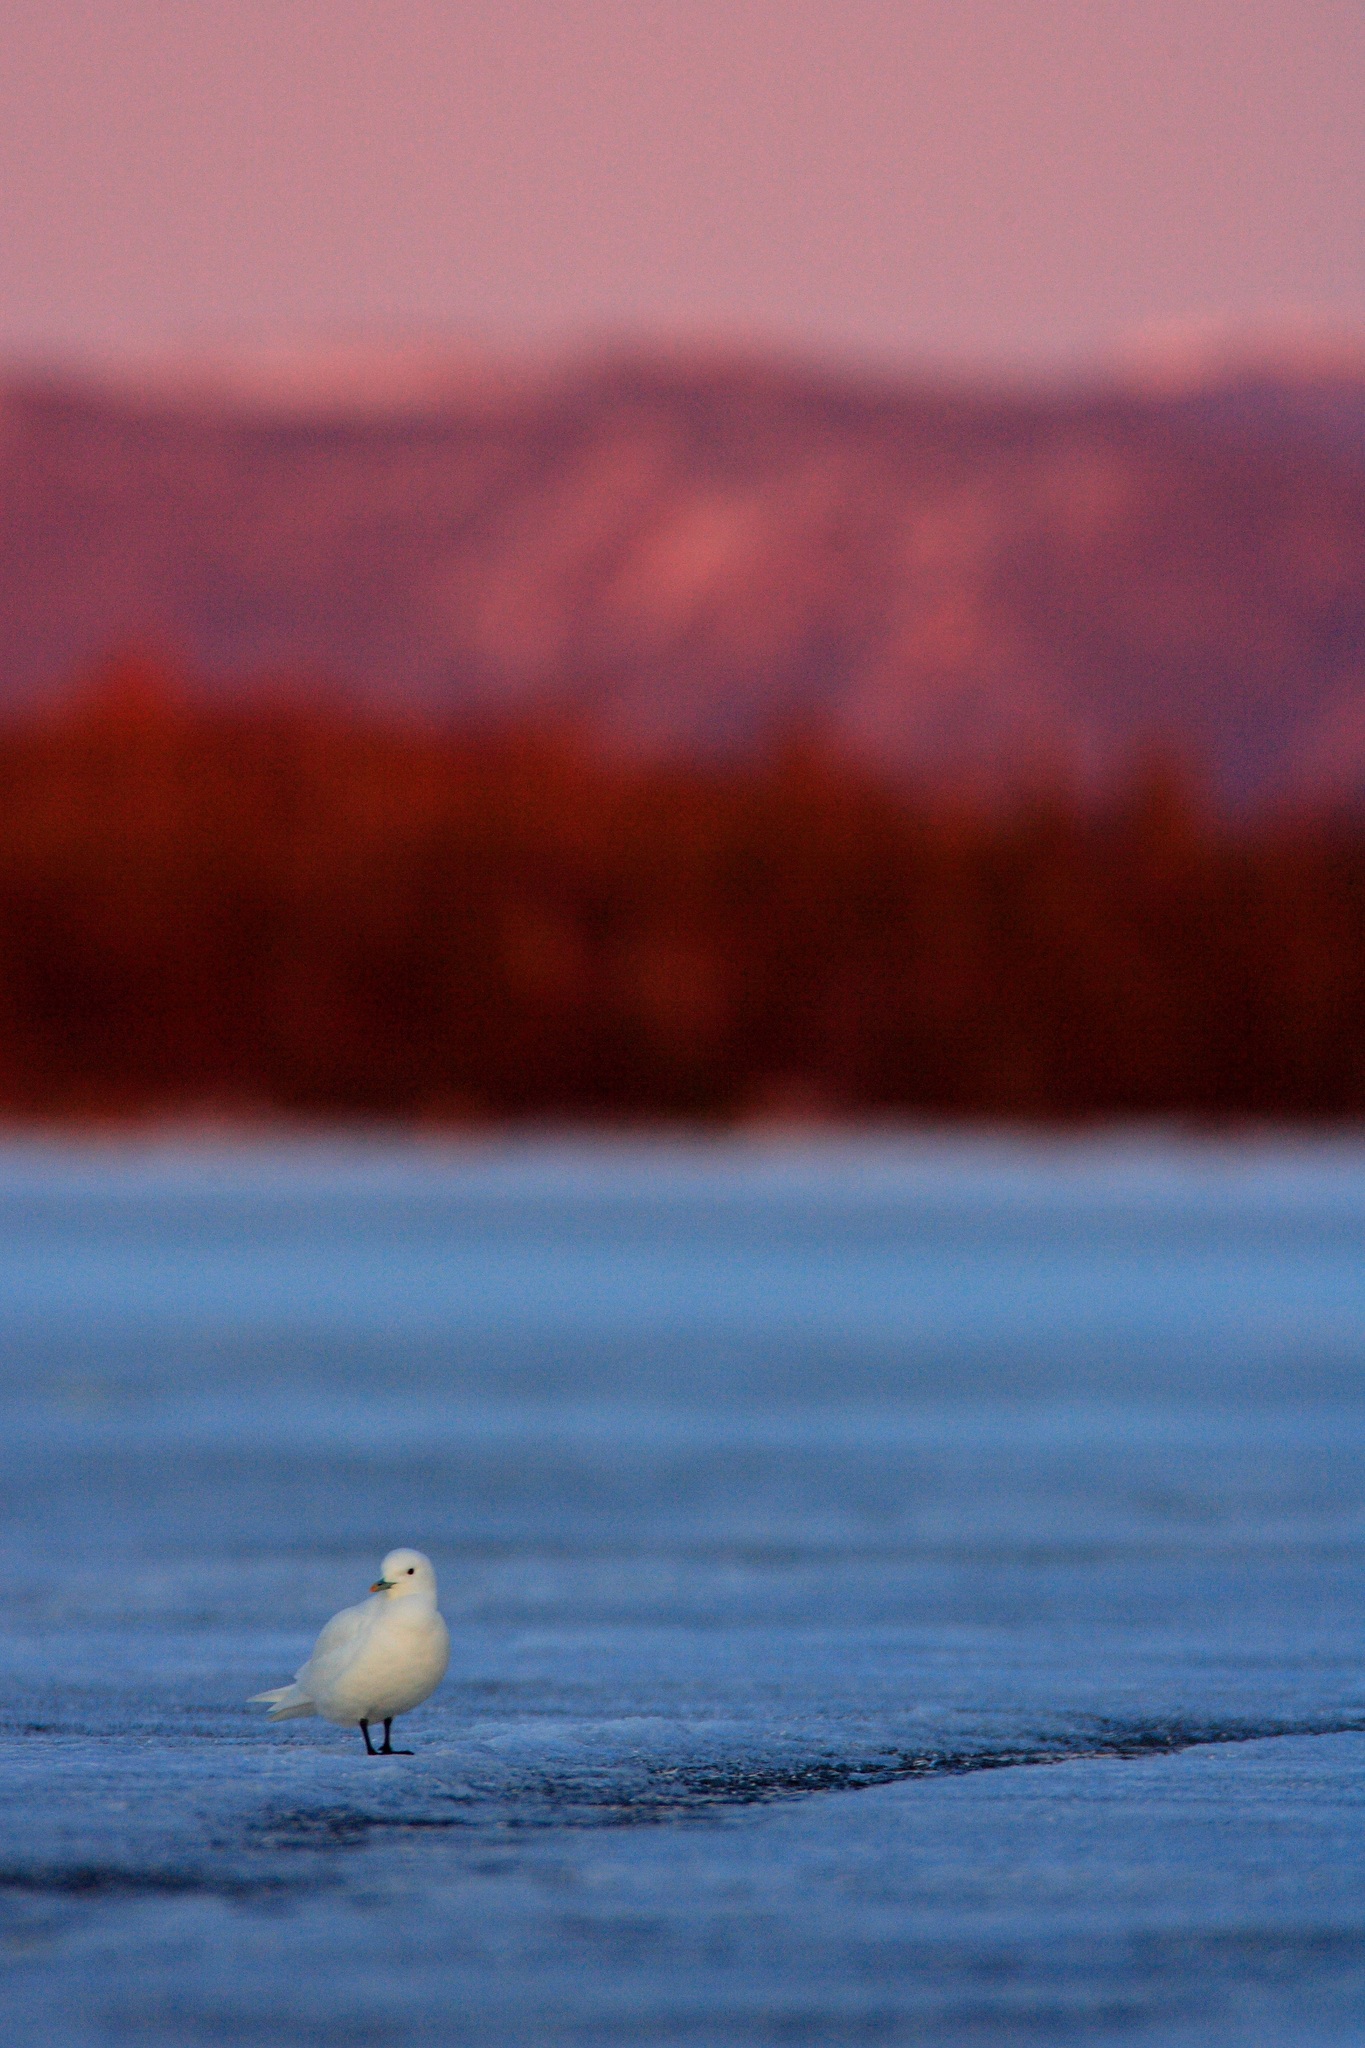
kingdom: Animalia
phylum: Chordata
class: Aves
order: Charadriiformes
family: Laridae
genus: Pagophila
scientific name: Pagophila eburnea
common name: Ivory gull
